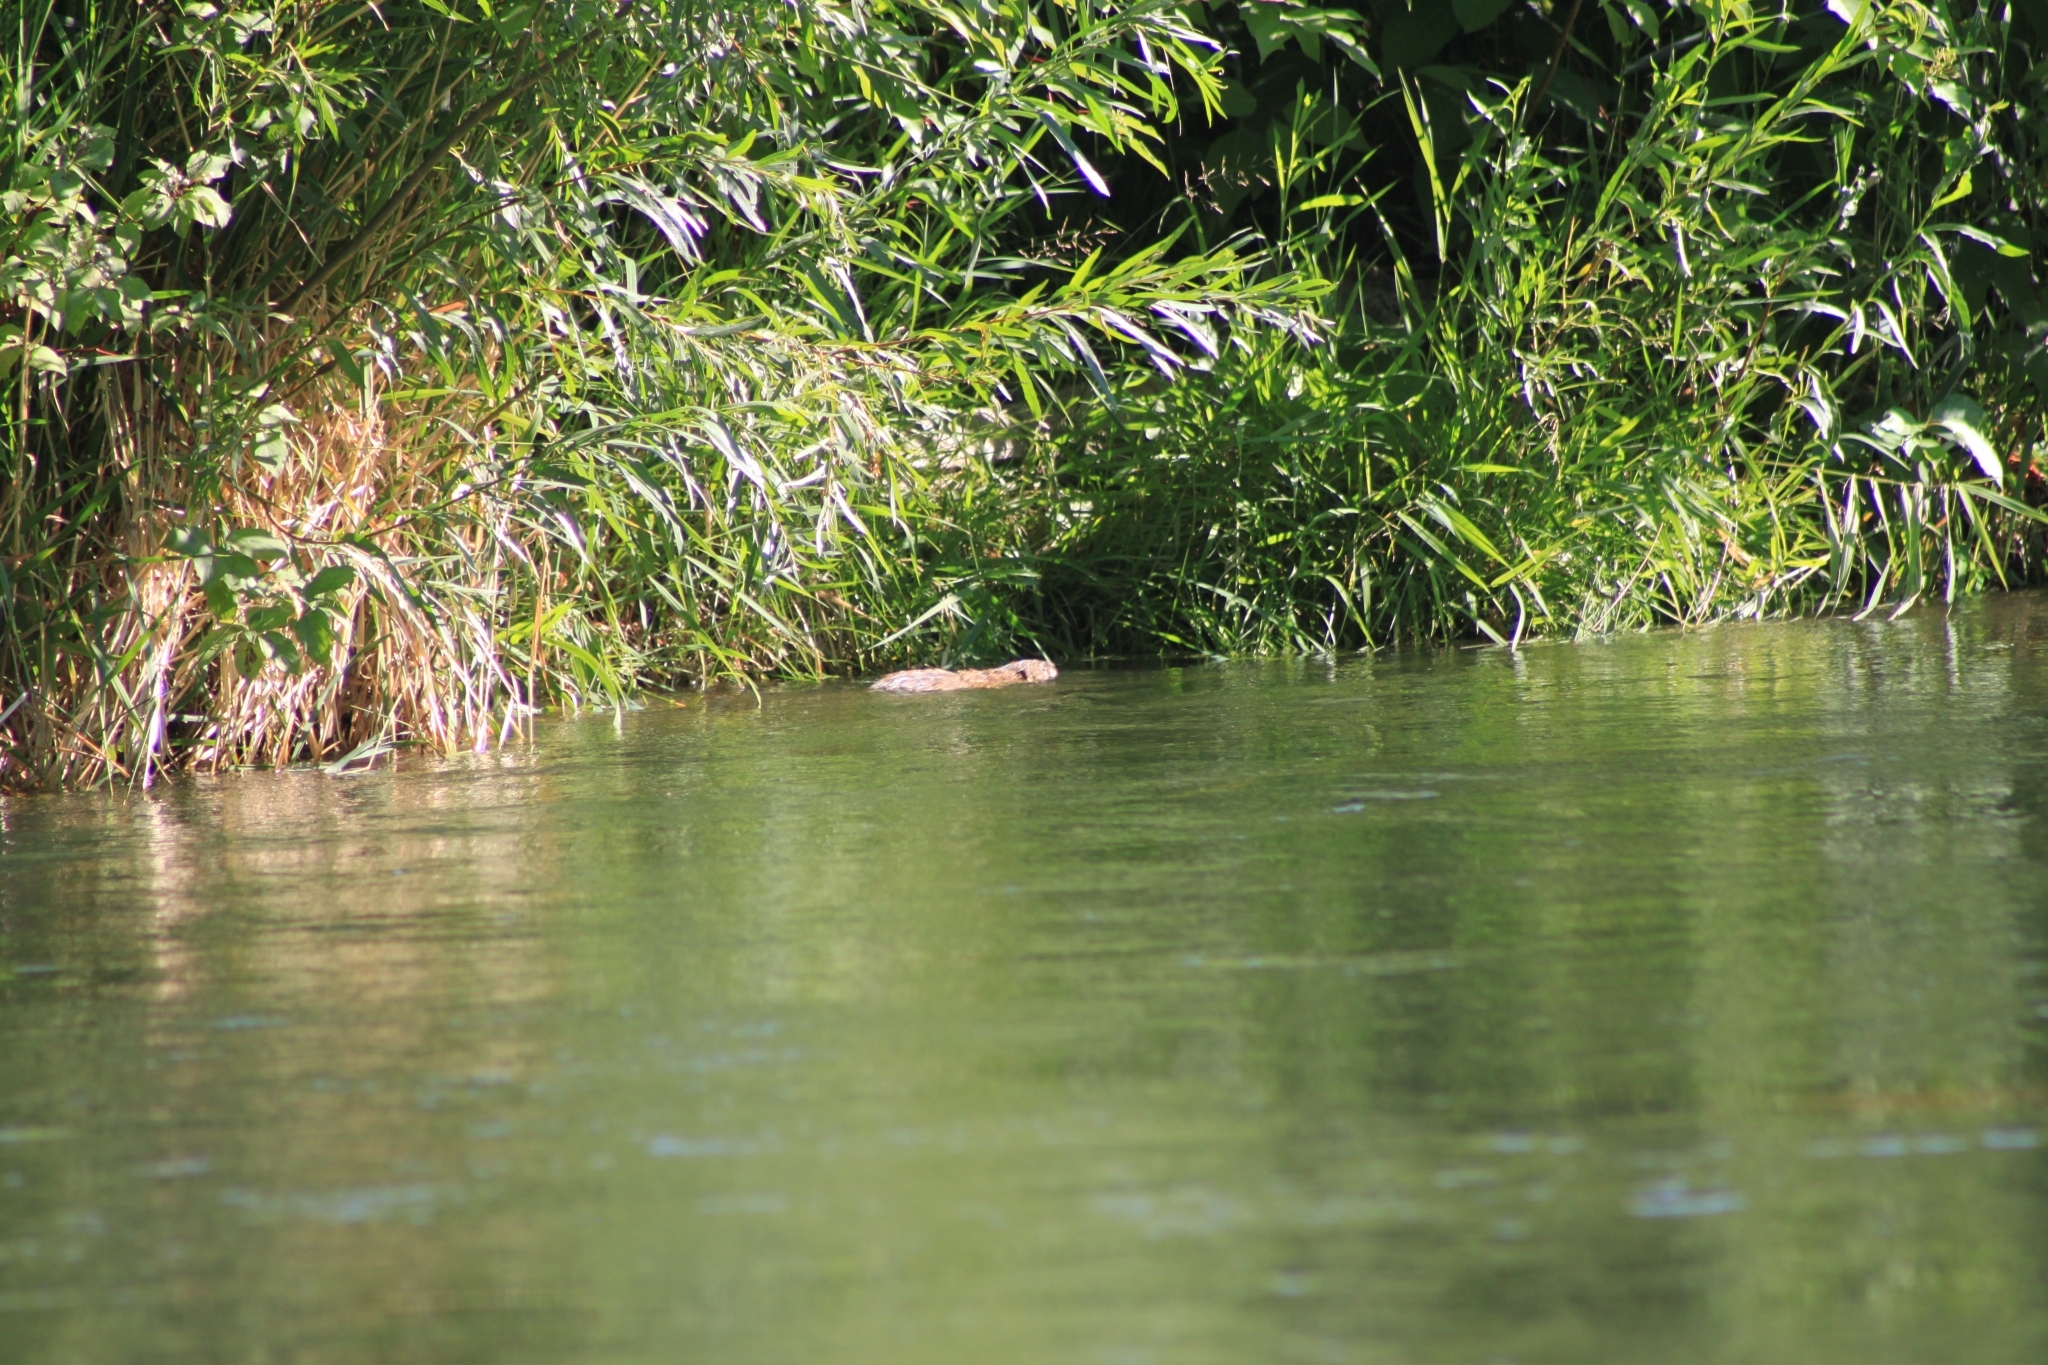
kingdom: Animalia
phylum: Chordata
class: Mammalia
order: Rodentia
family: Cricetidae
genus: Ondatra
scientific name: Ondatra zibethicus
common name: Muskrat
